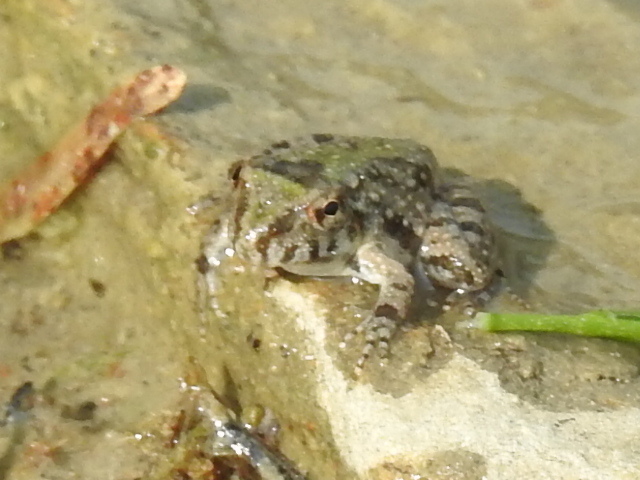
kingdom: Animalia
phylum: Chordata
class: Amphibia
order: Anura
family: Hylidae
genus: Acris
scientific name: Acris blanchardi
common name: Blanchard's cricket frog
